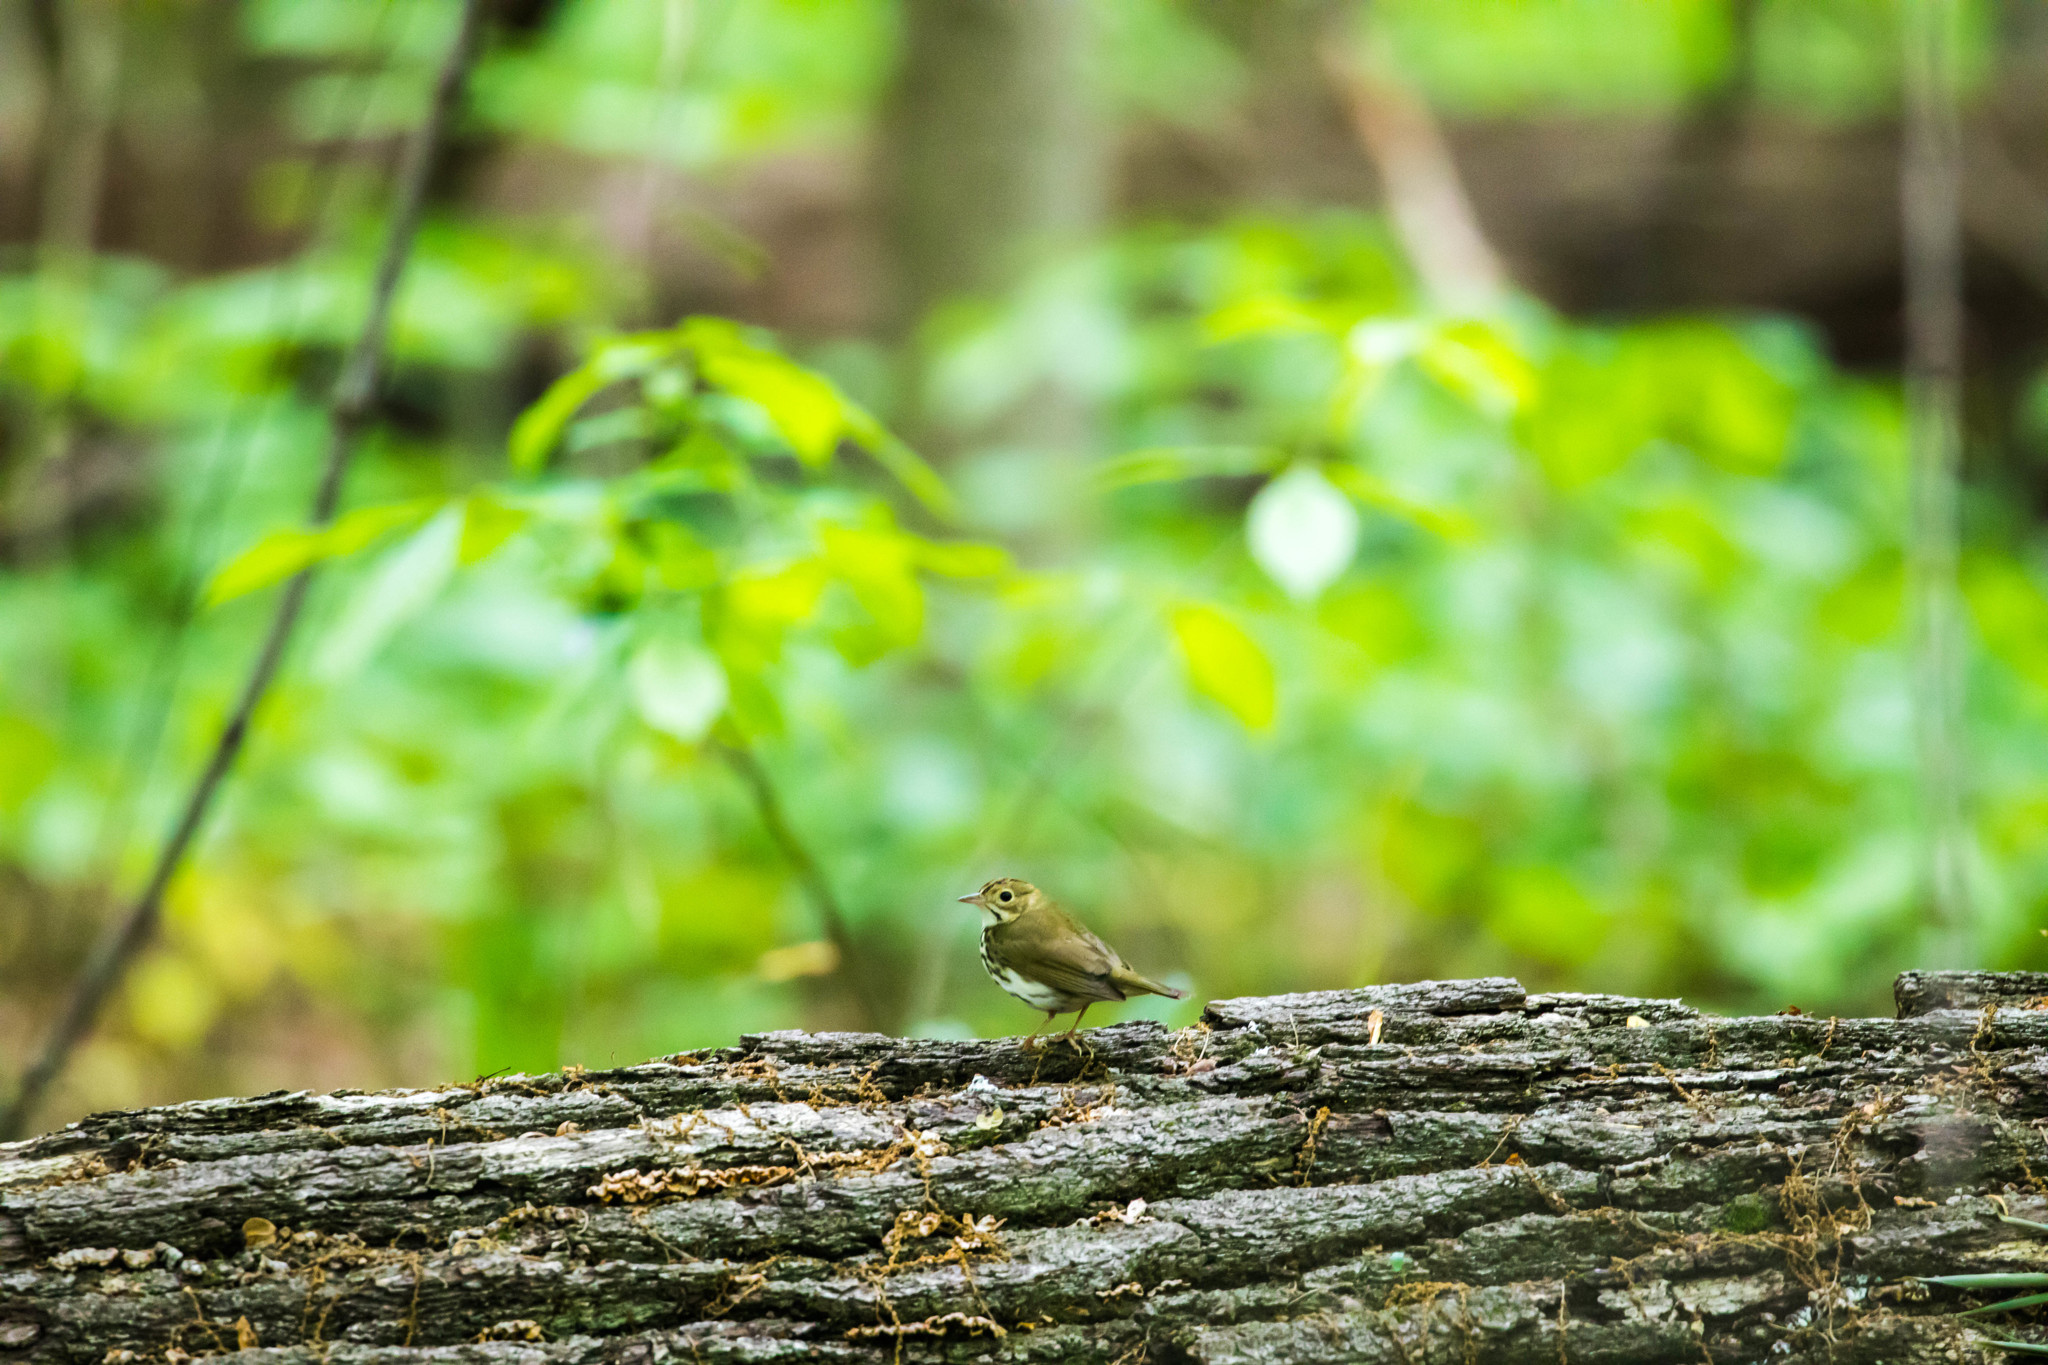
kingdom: Animalia
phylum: Chordata
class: Aves
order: Passeriformes
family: Parulidae
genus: Seiurus
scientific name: Seiurus aurocapilla
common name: Ovenbird
